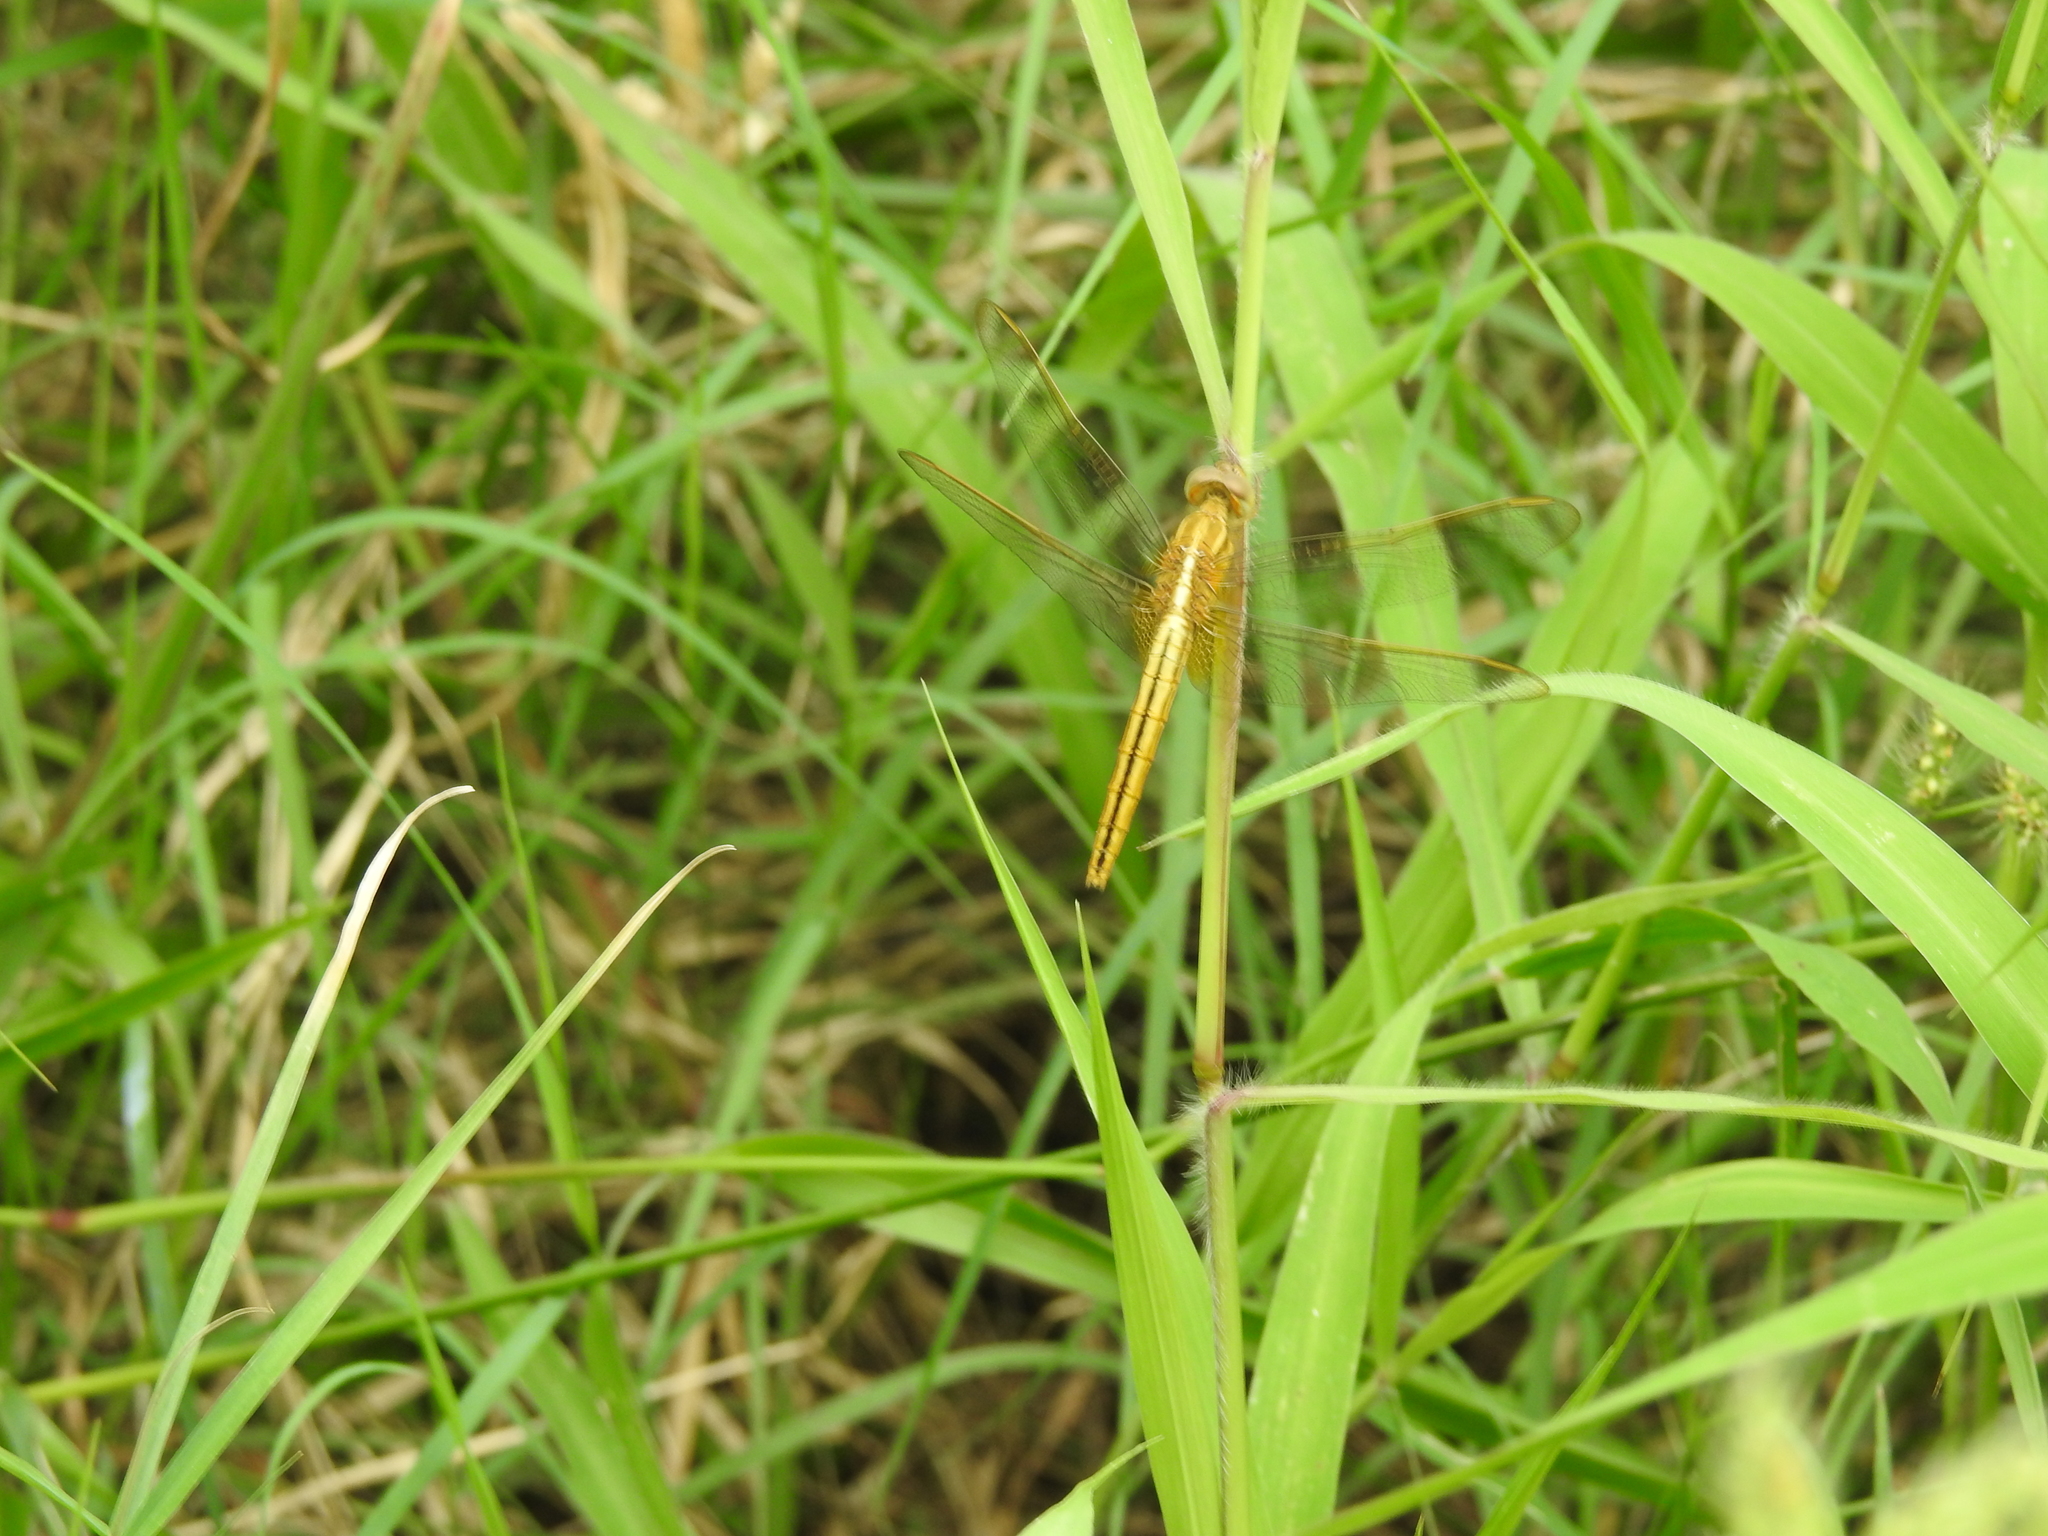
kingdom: Animalia
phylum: Arthropoda
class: Insecta
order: Odonata
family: Libellulidae
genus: Crocothemis
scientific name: Crocothemis servilia
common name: Scarlet skimmer
